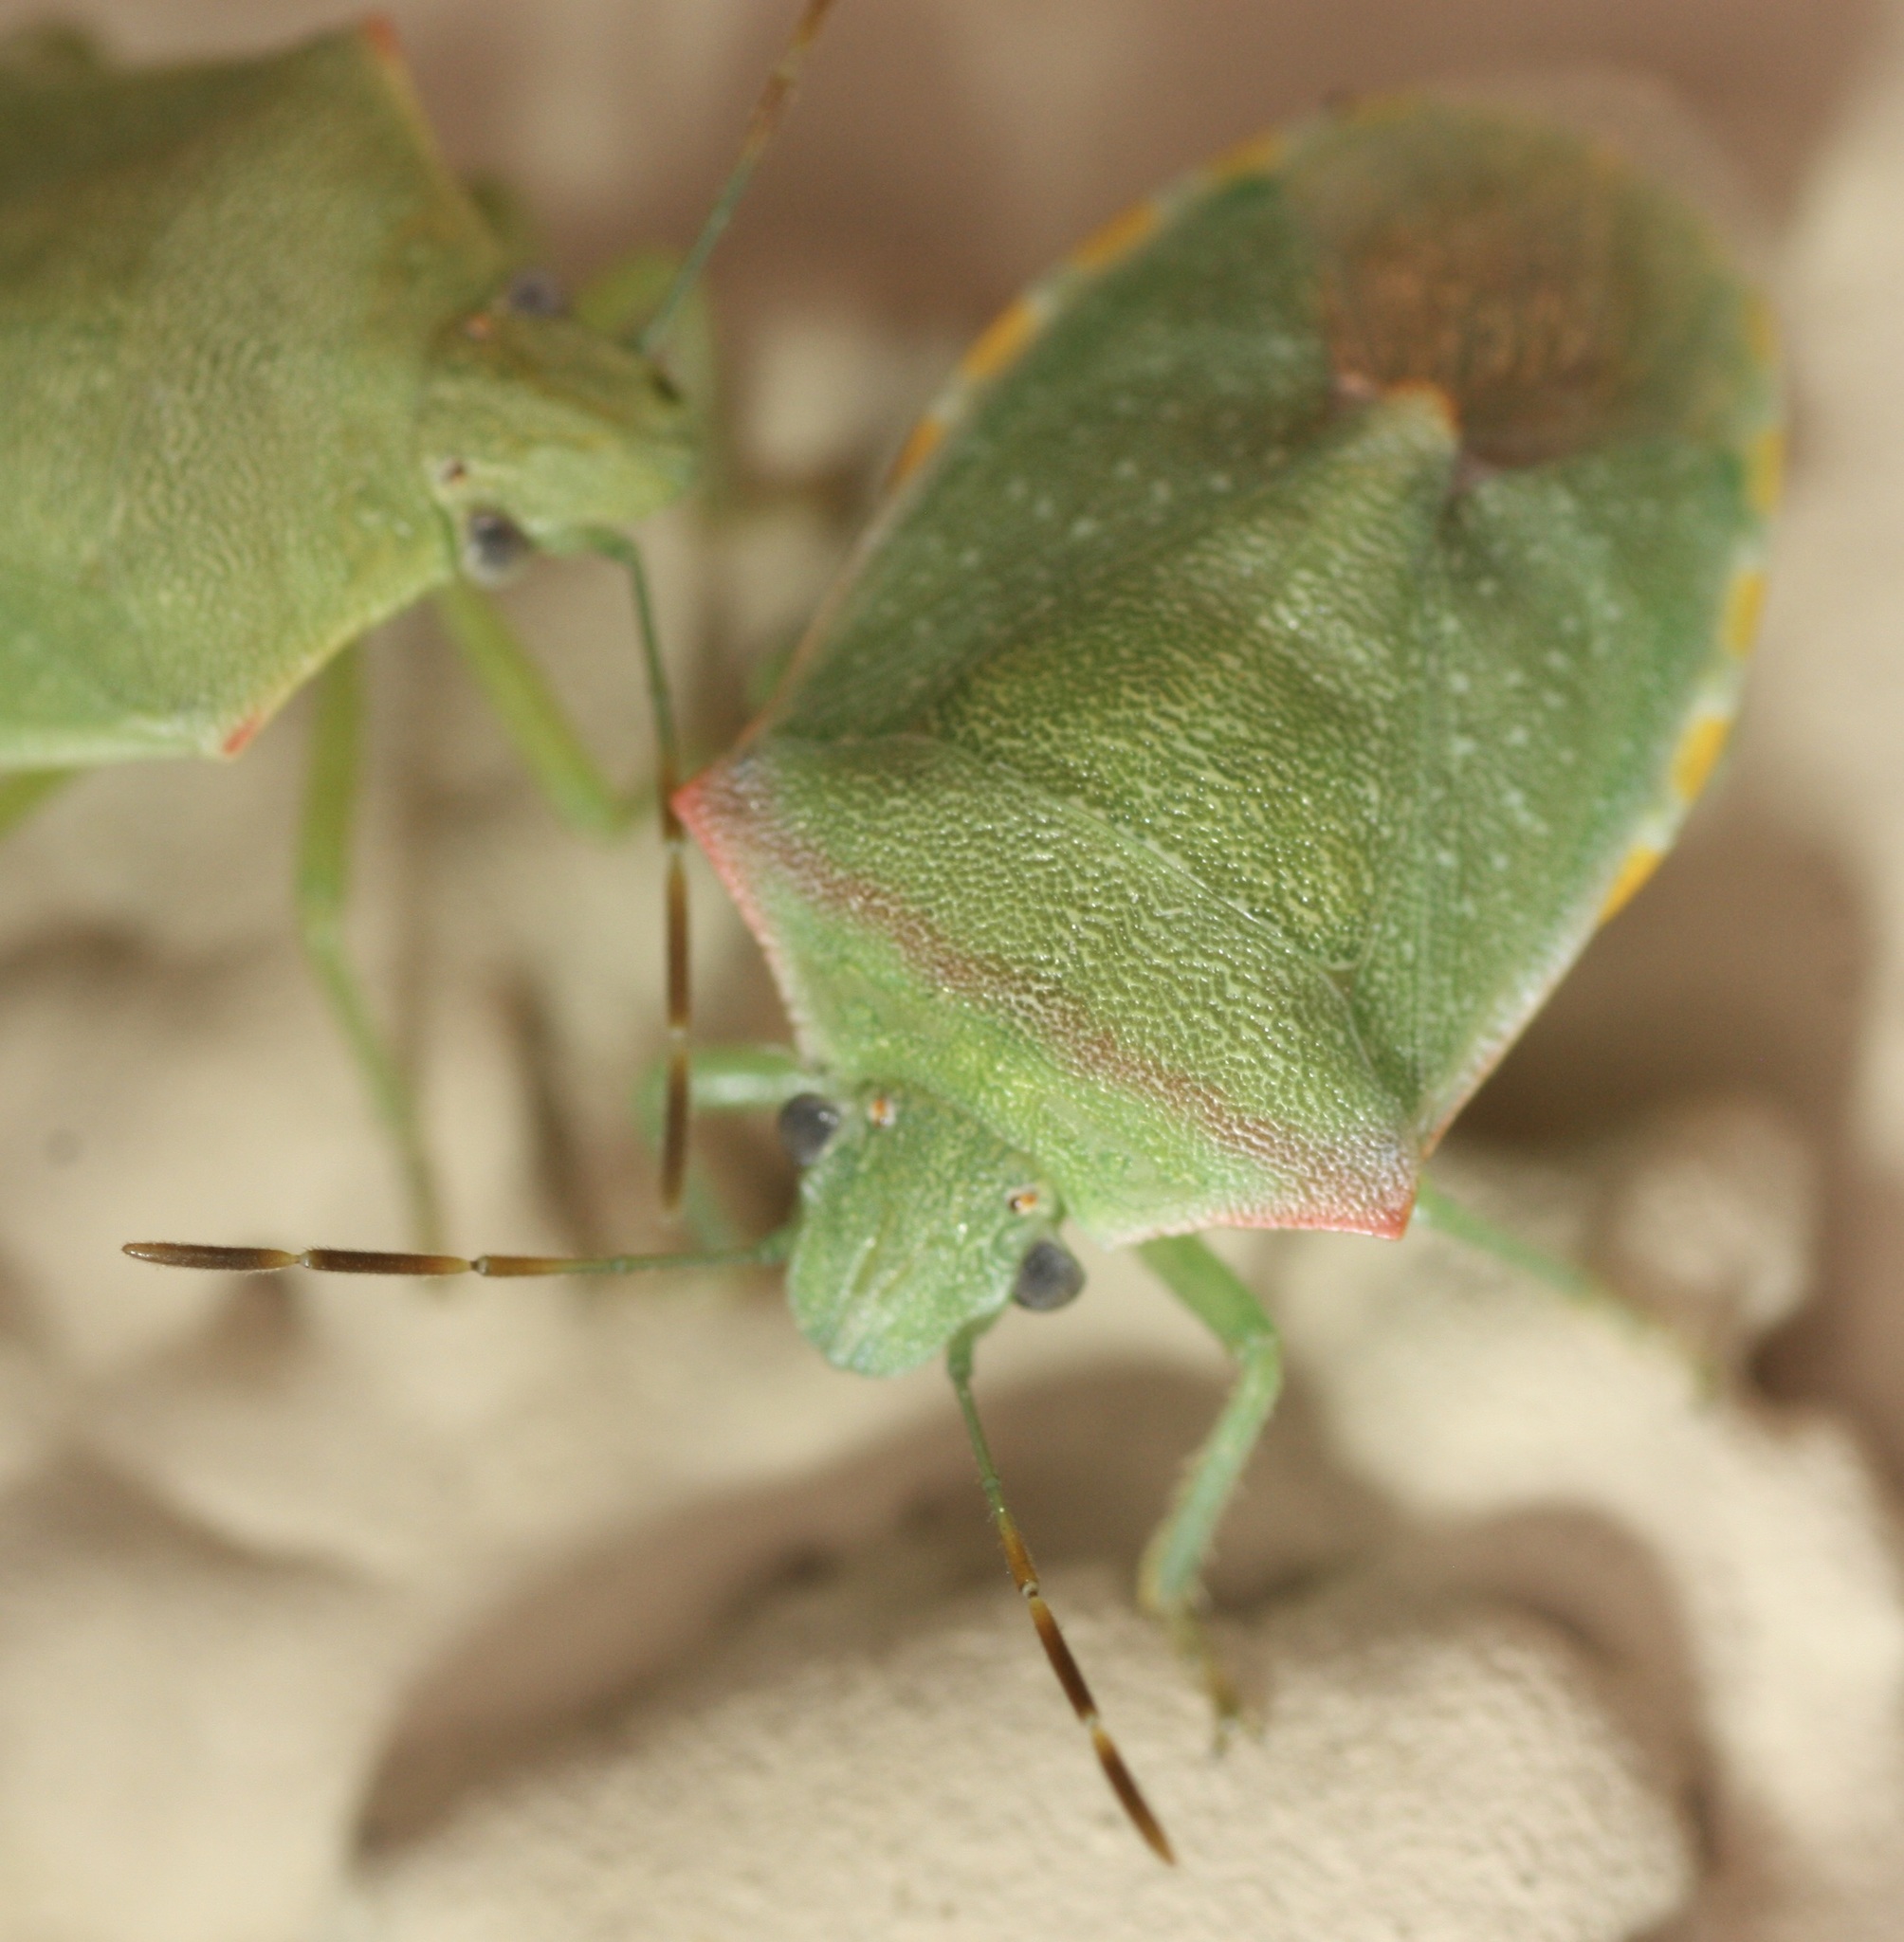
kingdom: Animalia
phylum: Arthropoda
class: Insecta
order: Hemiptera
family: Pentatomidae
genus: Thyanta
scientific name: Thyanta accerra
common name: Stink bug
